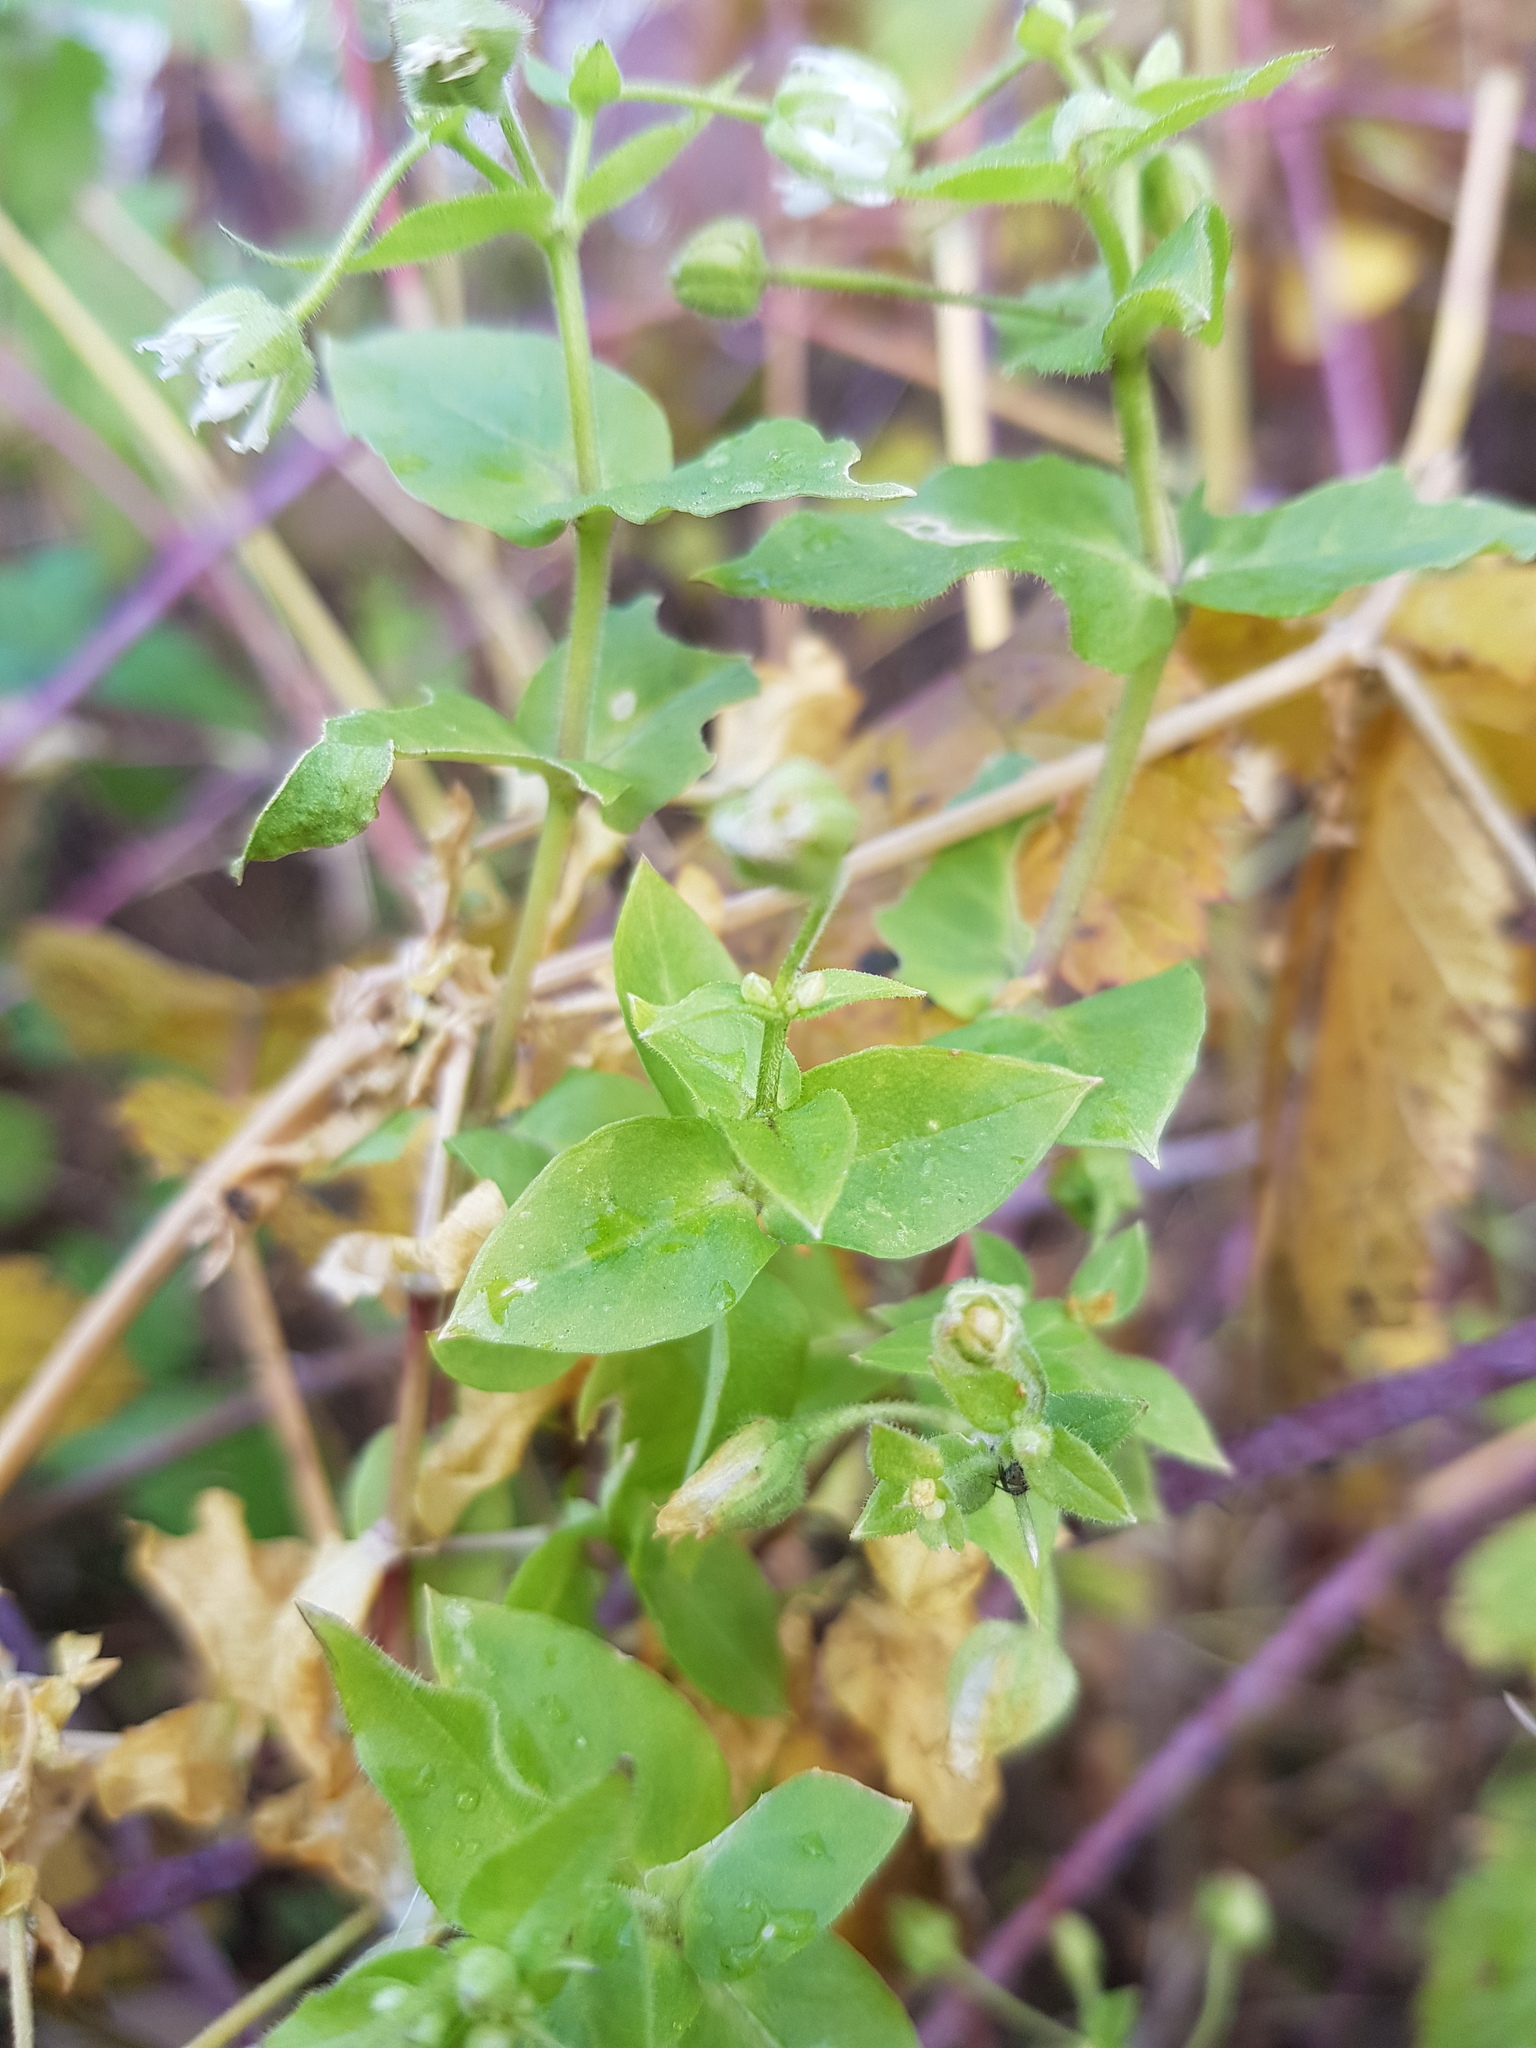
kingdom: Plantae
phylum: Tracheophyta
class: Magnoliopsida
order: Caryophyllales
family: Caryophyllaceae
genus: Stellaria
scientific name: Stellaria aquatica
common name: Water chickweed
